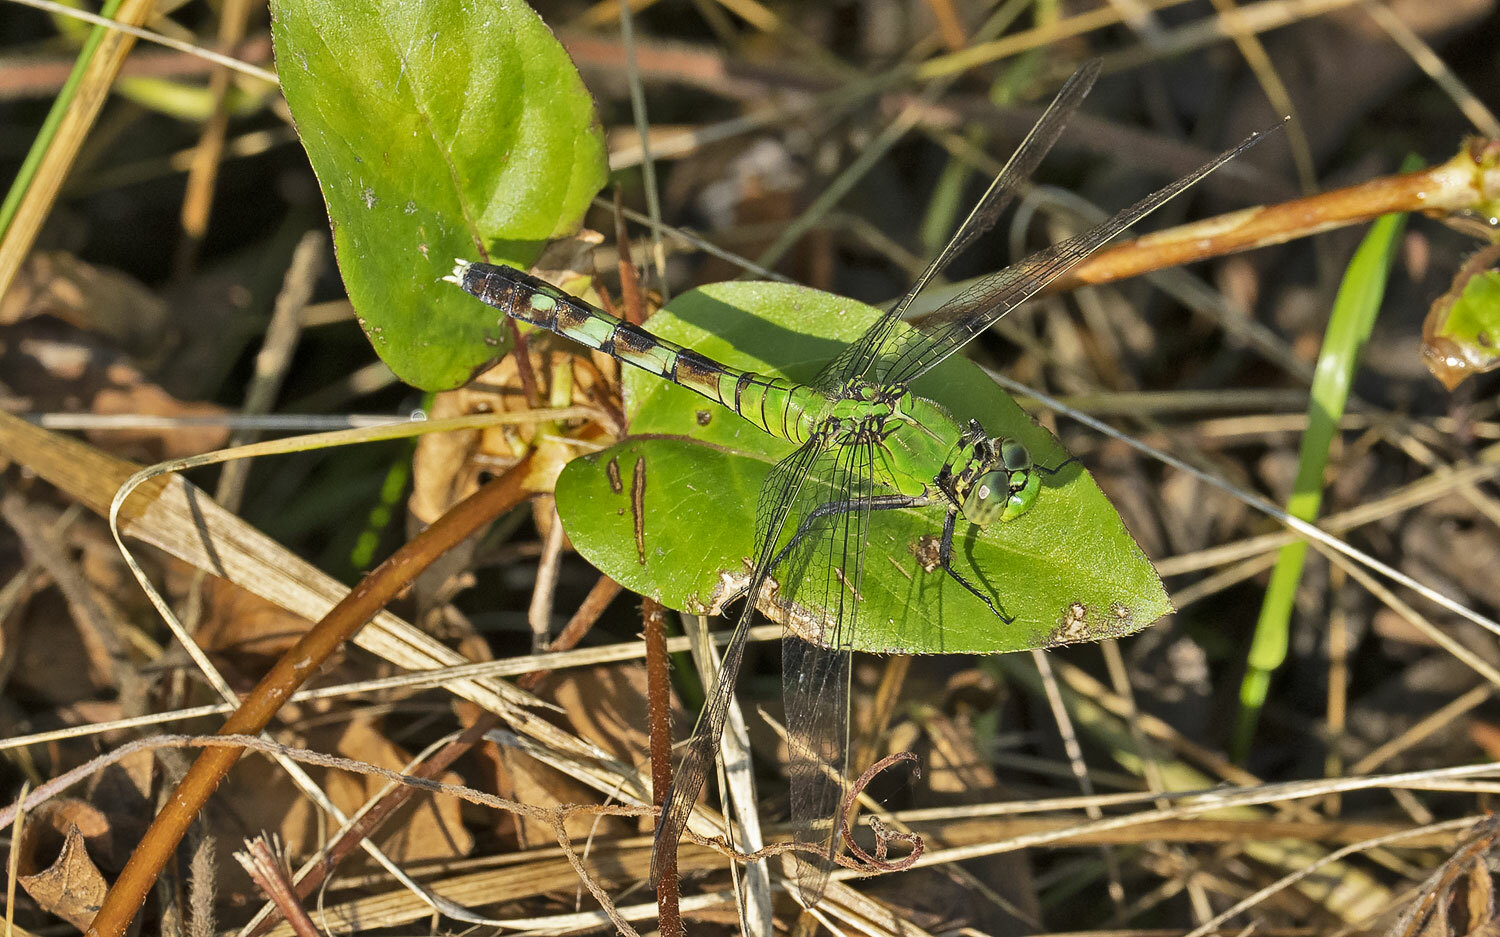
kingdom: Animalia
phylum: Arthropoda
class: Insecta
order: Odonata
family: Libellulidae
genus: Erythemis
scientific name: Erythemis simplicicollis
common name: Eastern pondhawk
